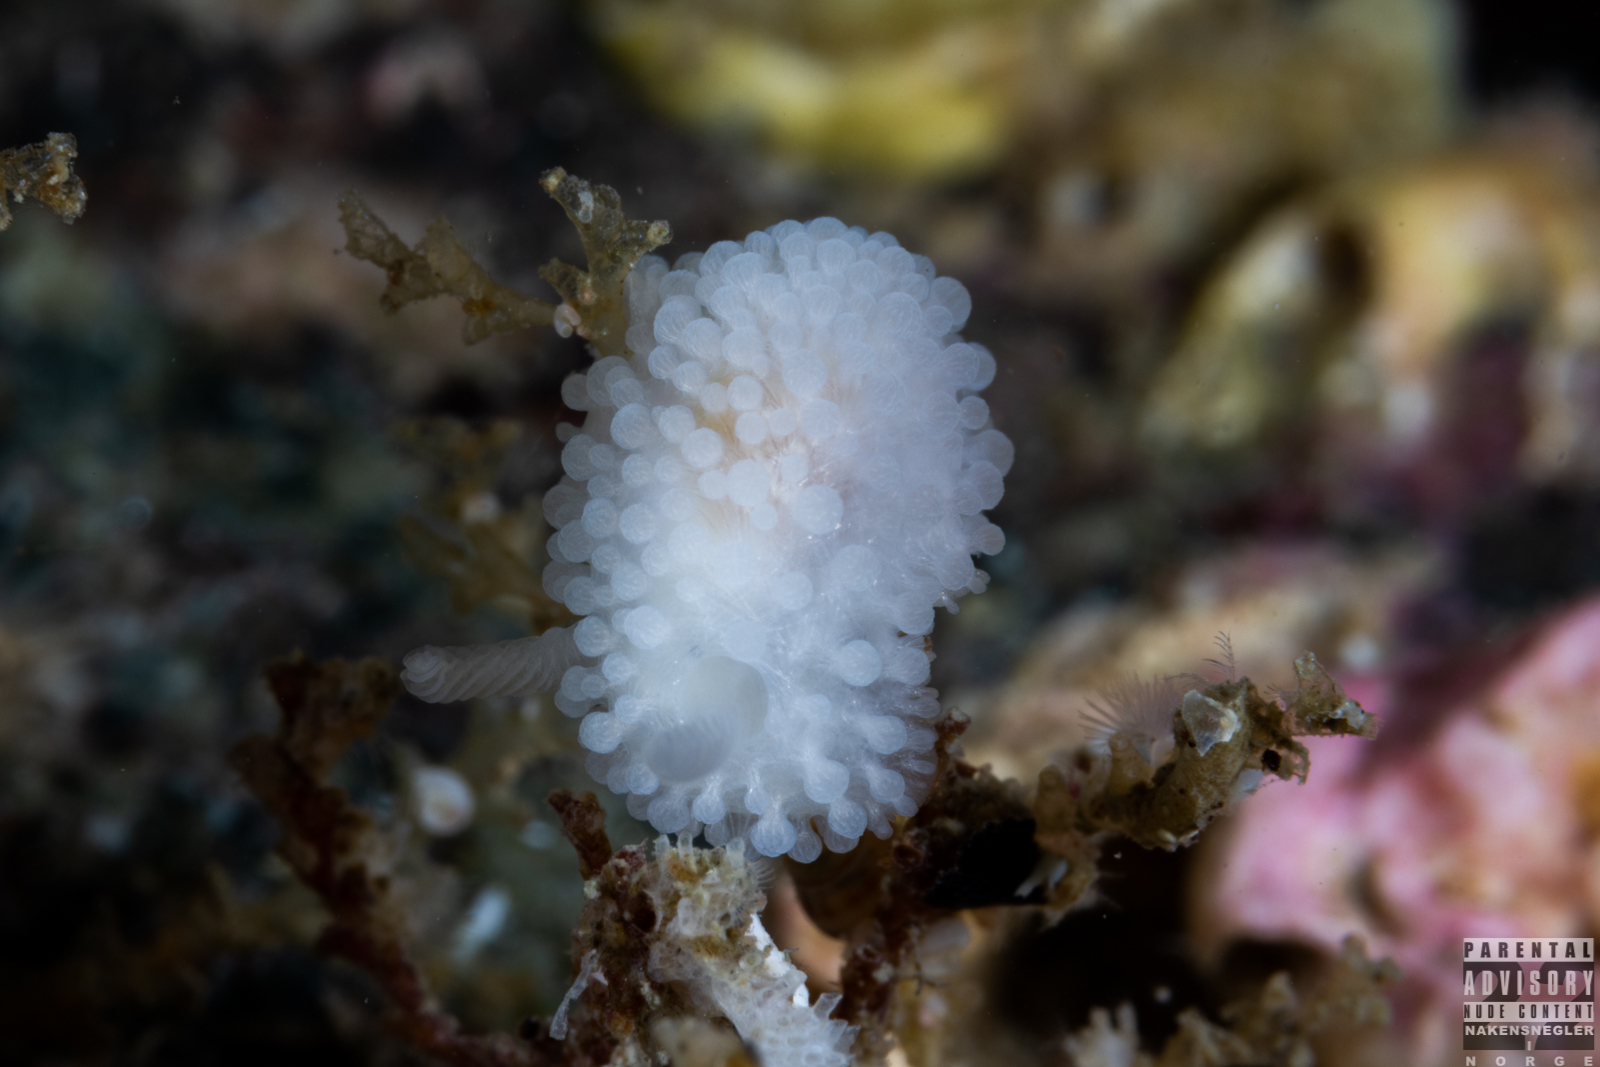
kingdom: Animalia
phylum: Mollusca
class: Gastropoda
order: Nudibranchia
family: Onchidorididae
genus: Onchidoris
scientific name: Onchidoris muricata
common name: Rough doris
